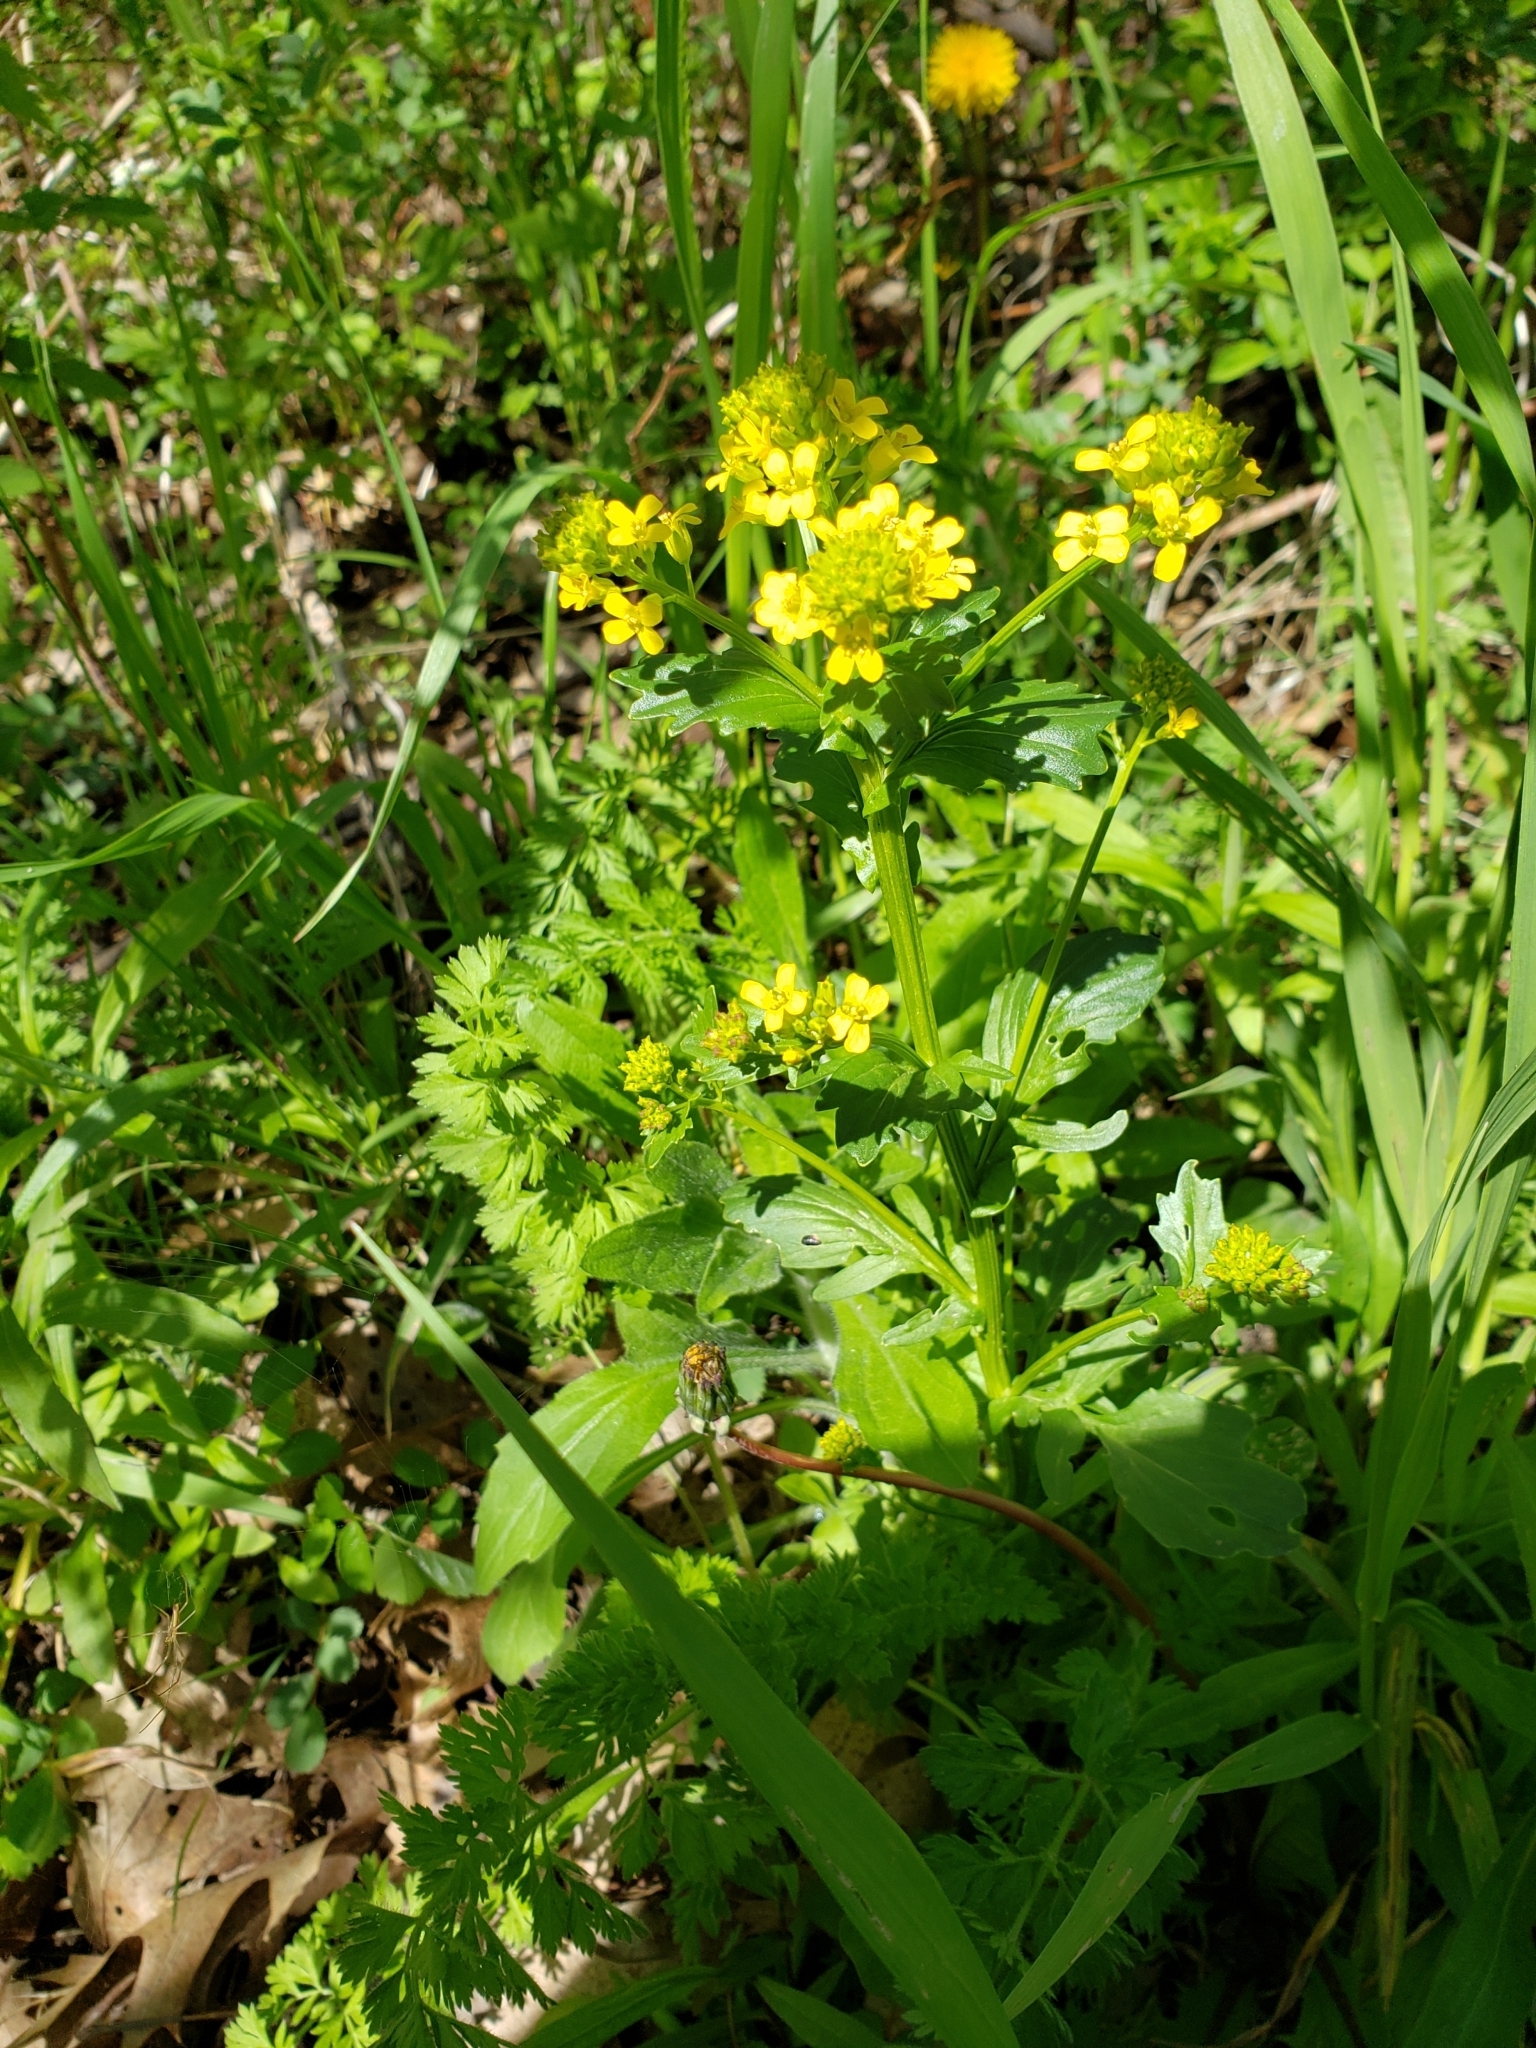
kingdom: Plantae
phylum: Tracheophyta
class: Magnoliopsida
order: Brassicales
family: Brassicaceae
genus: Barbarea
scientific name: Barbarea vulgaris
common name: Cressy-greens
